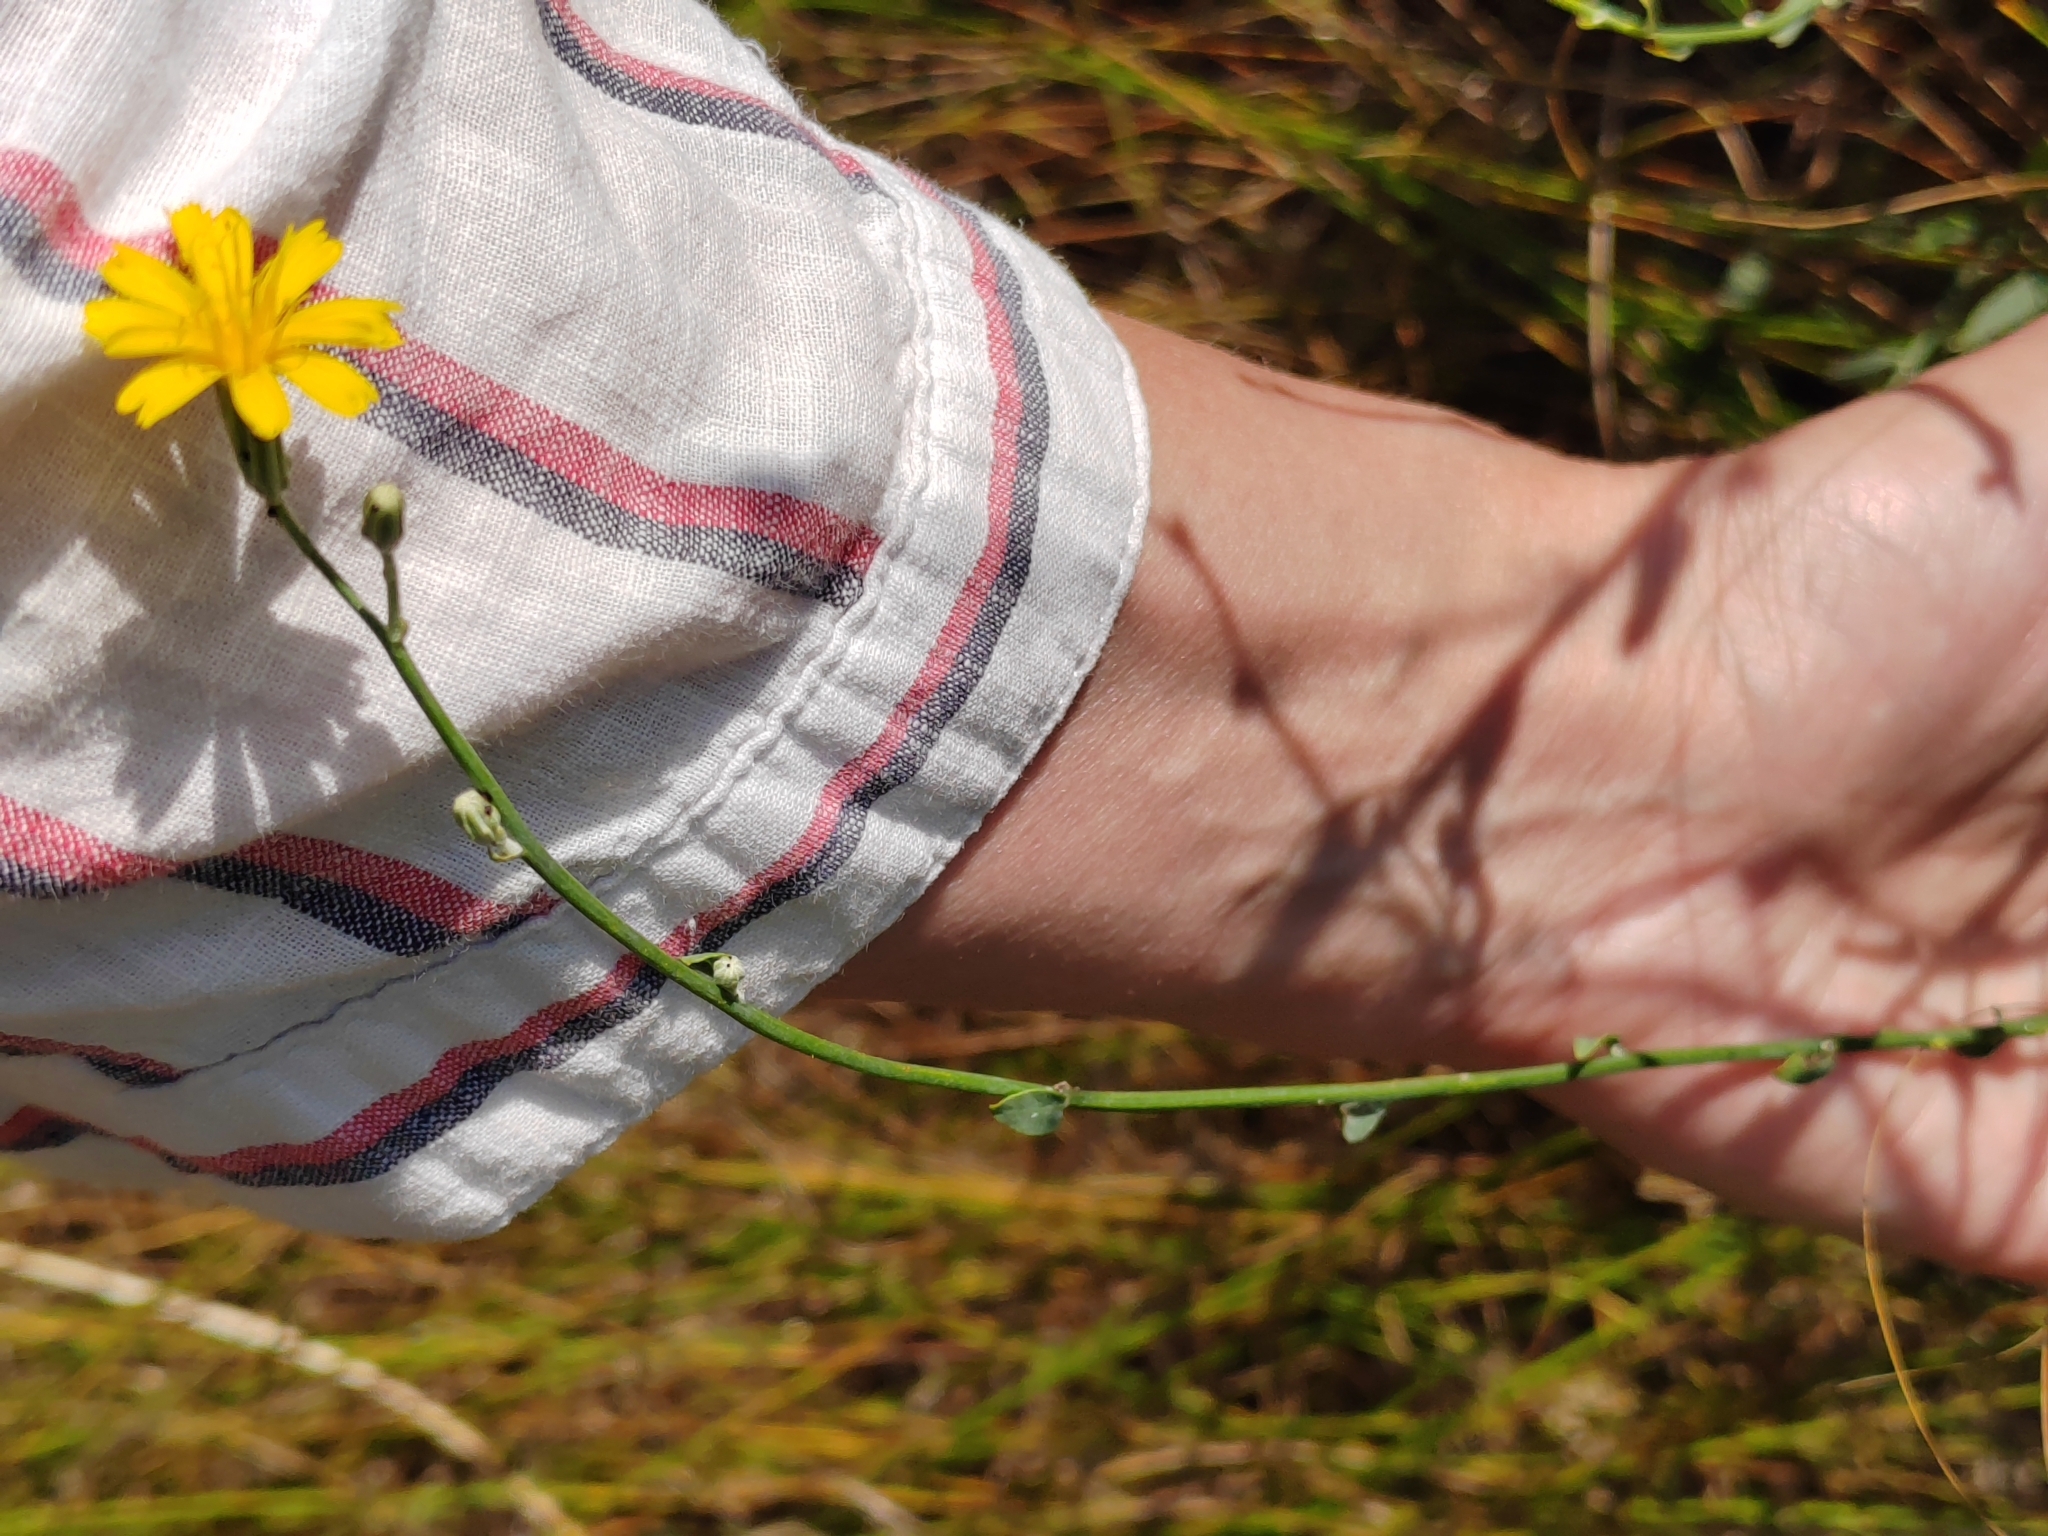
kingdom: Plantae
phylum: Tracheophyta
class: Magnoliopsida
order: Asterales
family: Asteraceae
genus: Chondrilla
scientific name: Chondrilla juncea
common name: Skeleton weed
